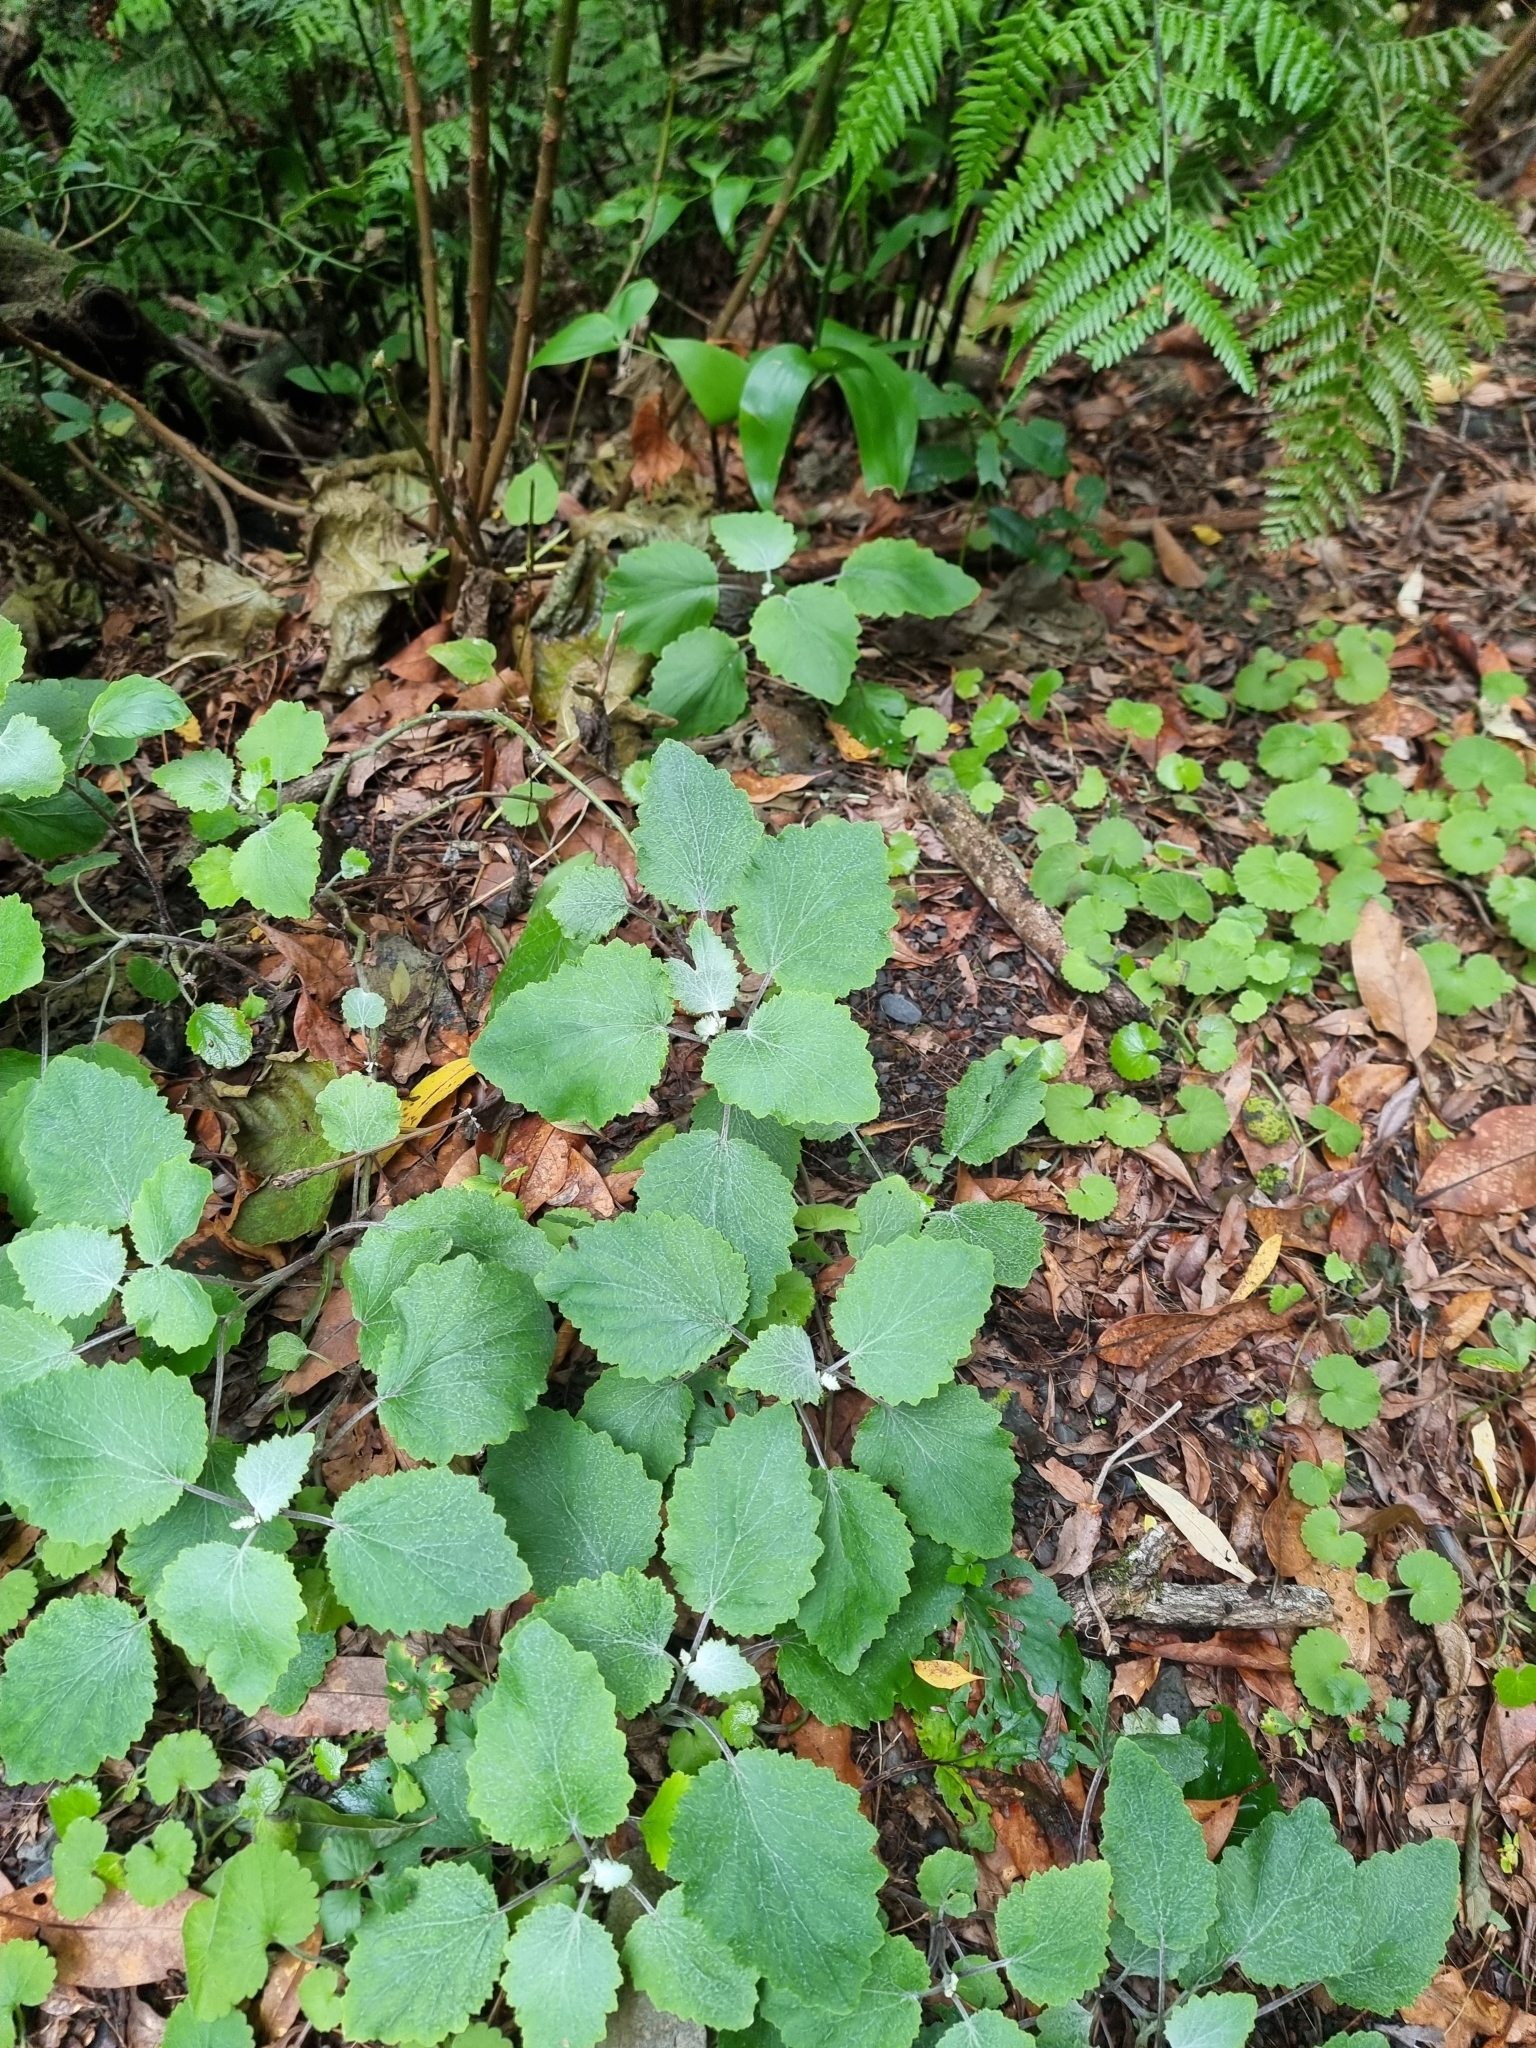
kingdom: Plantae
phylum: Tracheophyta
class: Magnoliopsida
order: Asterales
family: Asteraceae
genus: Pericallis
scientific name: Pericallis aurita
